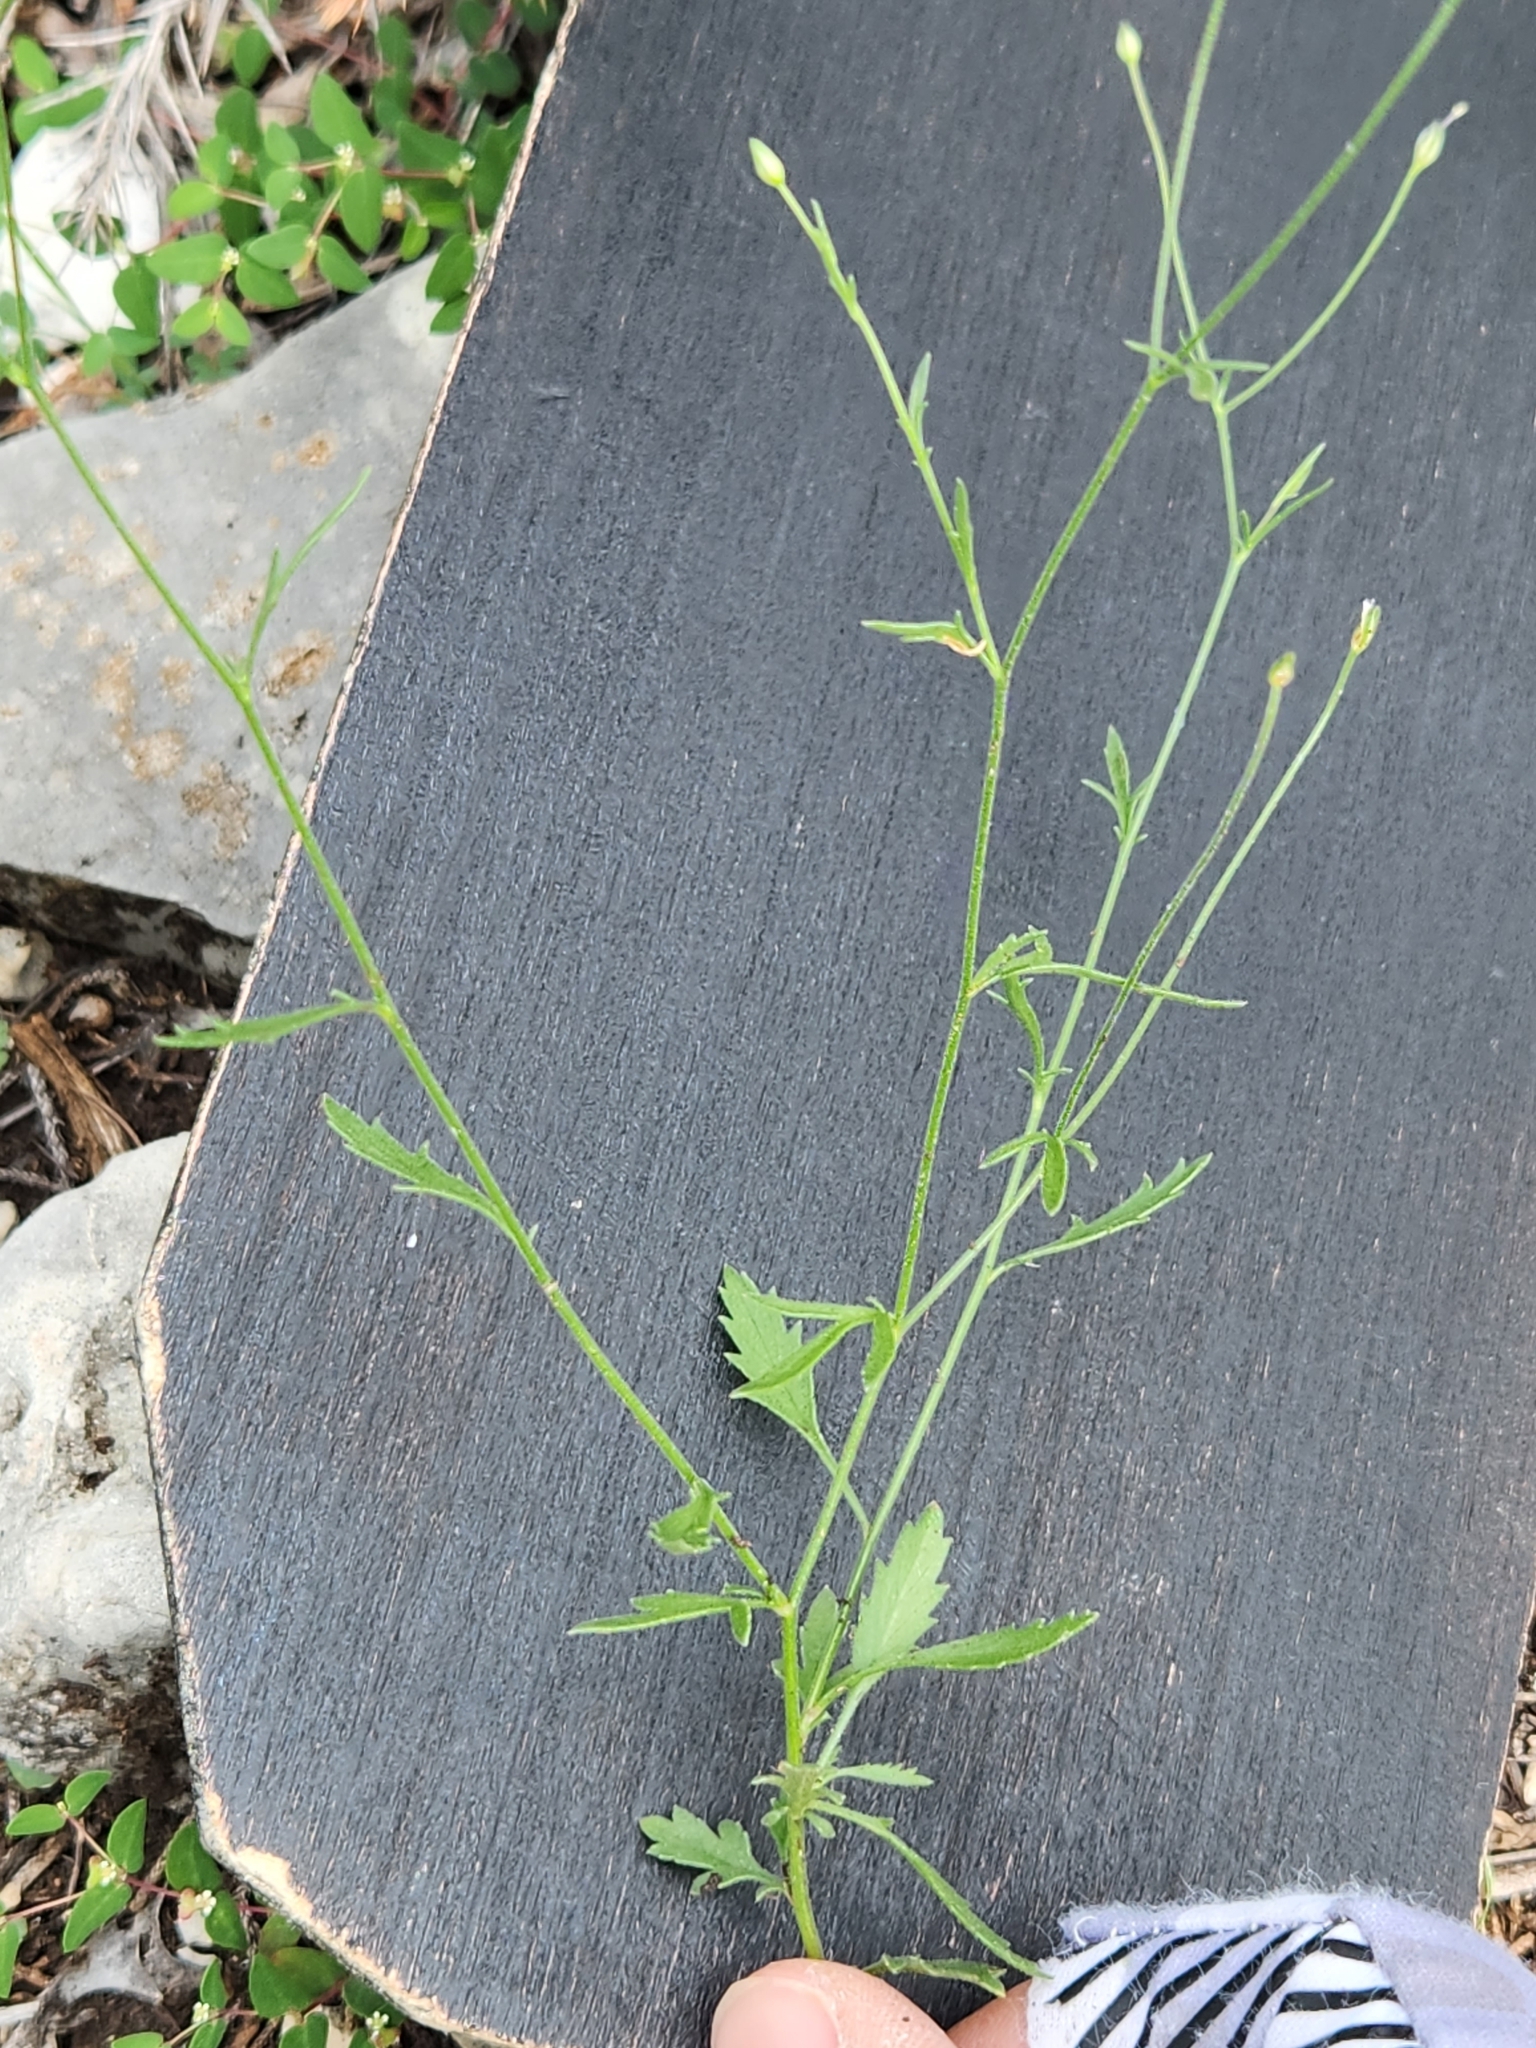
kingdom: Plantae
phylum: Tracheophyta
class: Magnoliopsida
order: Ericales
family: Polemoniaceae
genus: Giliastrum
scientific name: Giliastrum incisum
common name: Splitleaf gilia
